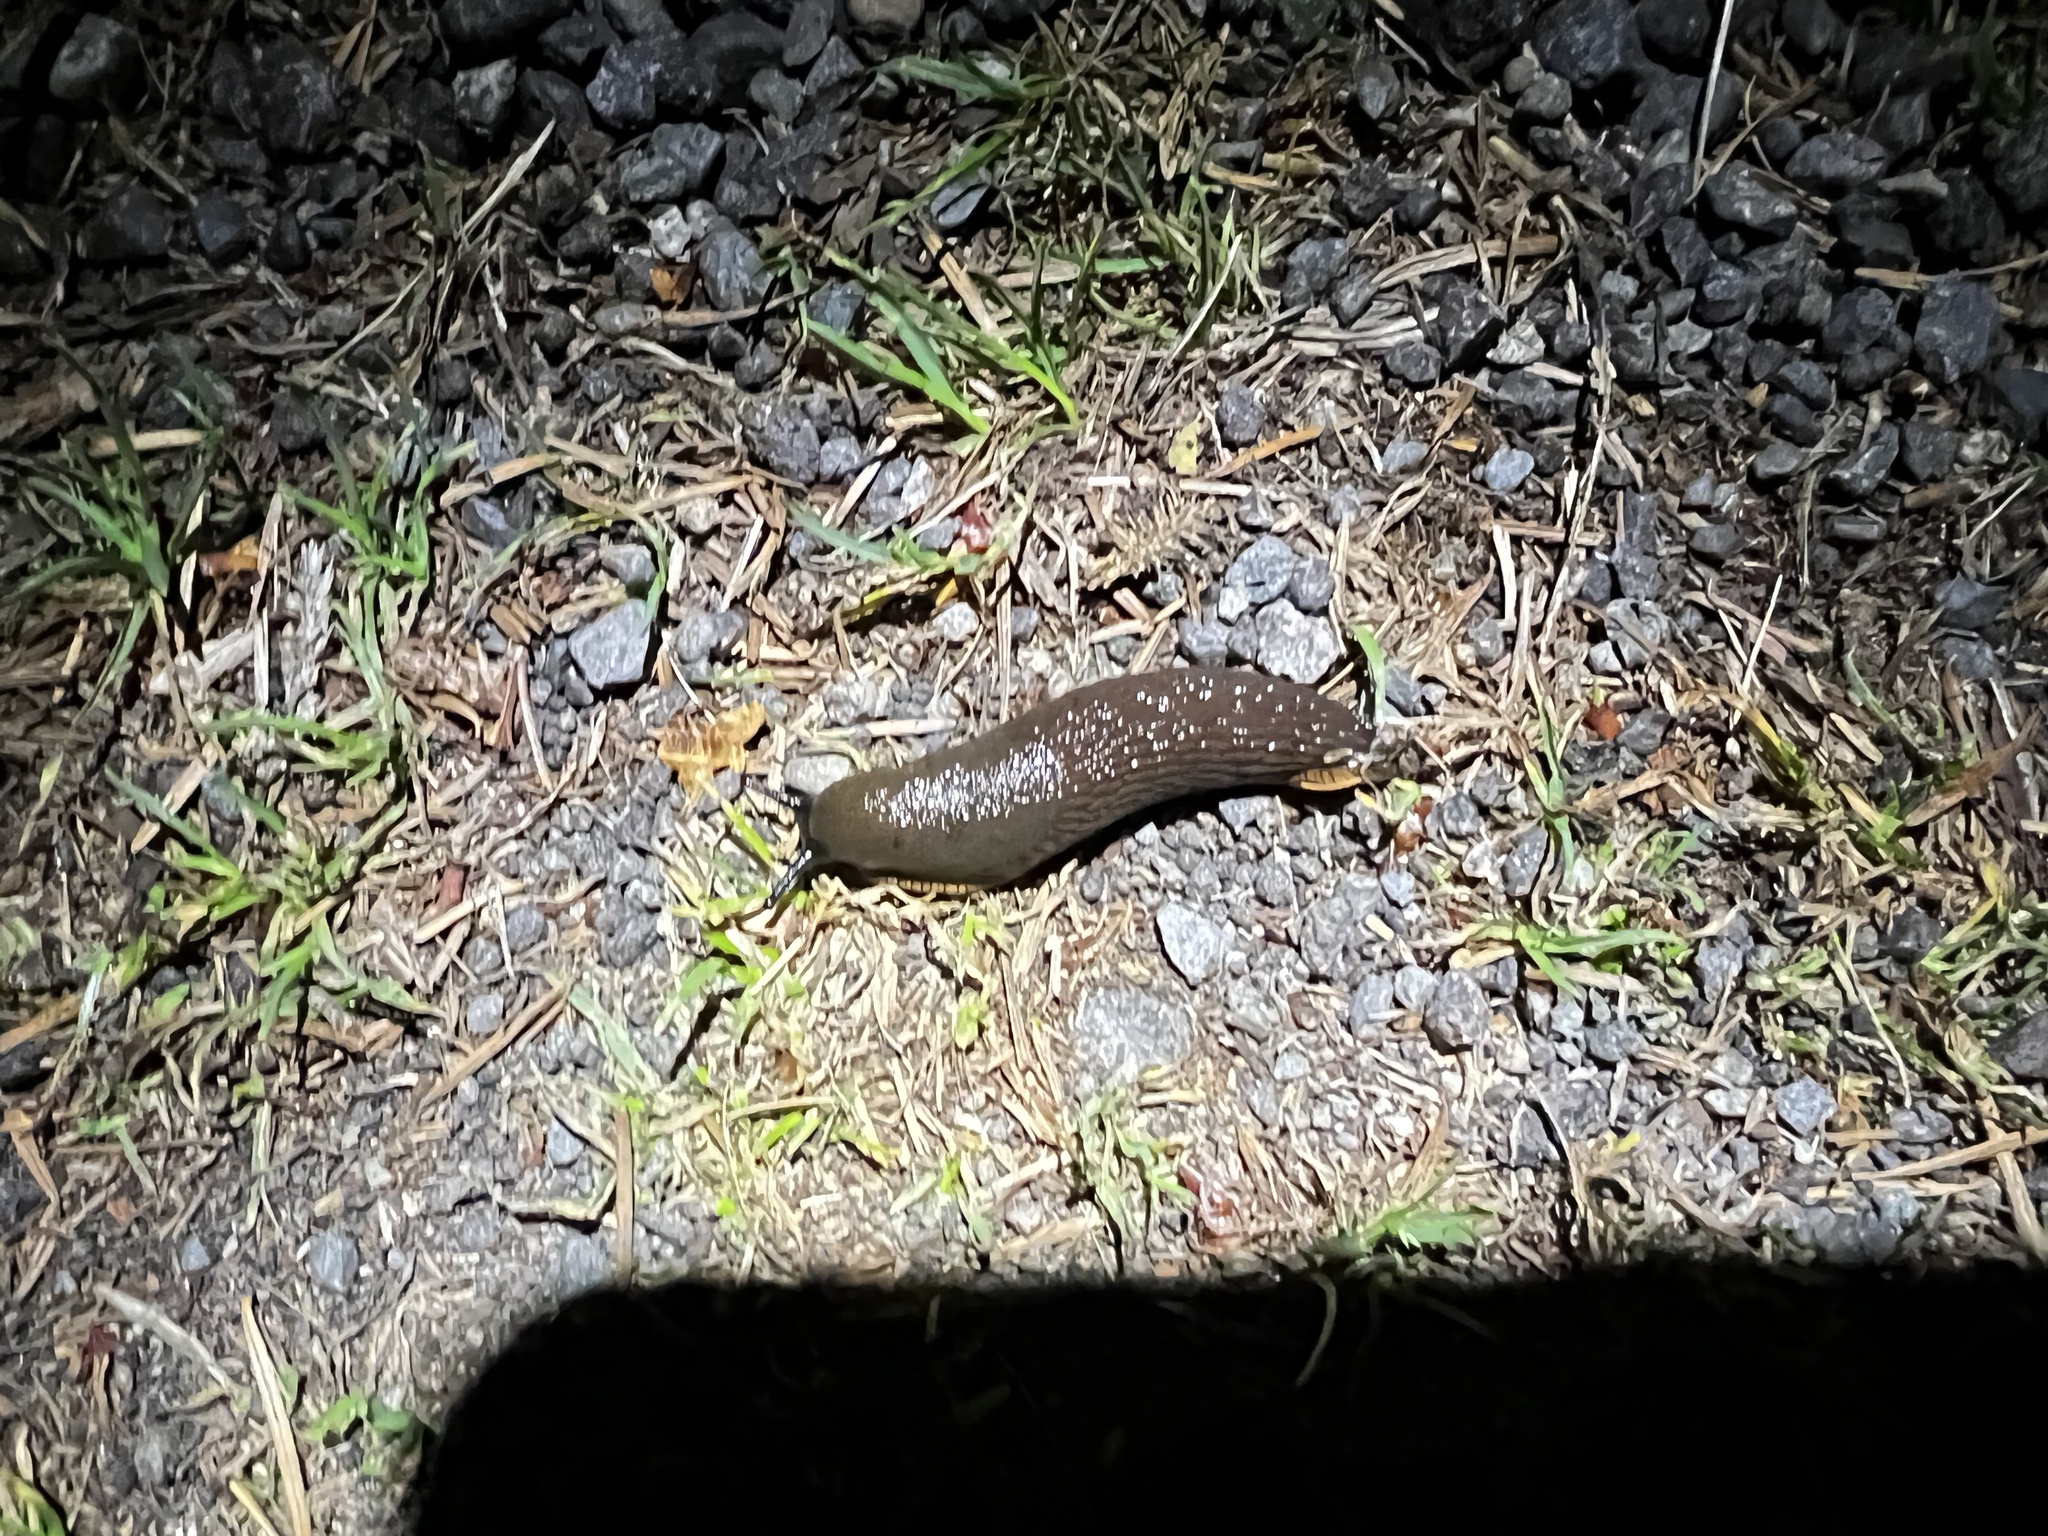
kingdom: Animalia
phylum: Mollusca
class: Gastropoda
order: Stylommatophora
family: Arionidae
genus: Arion
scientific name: Arion
